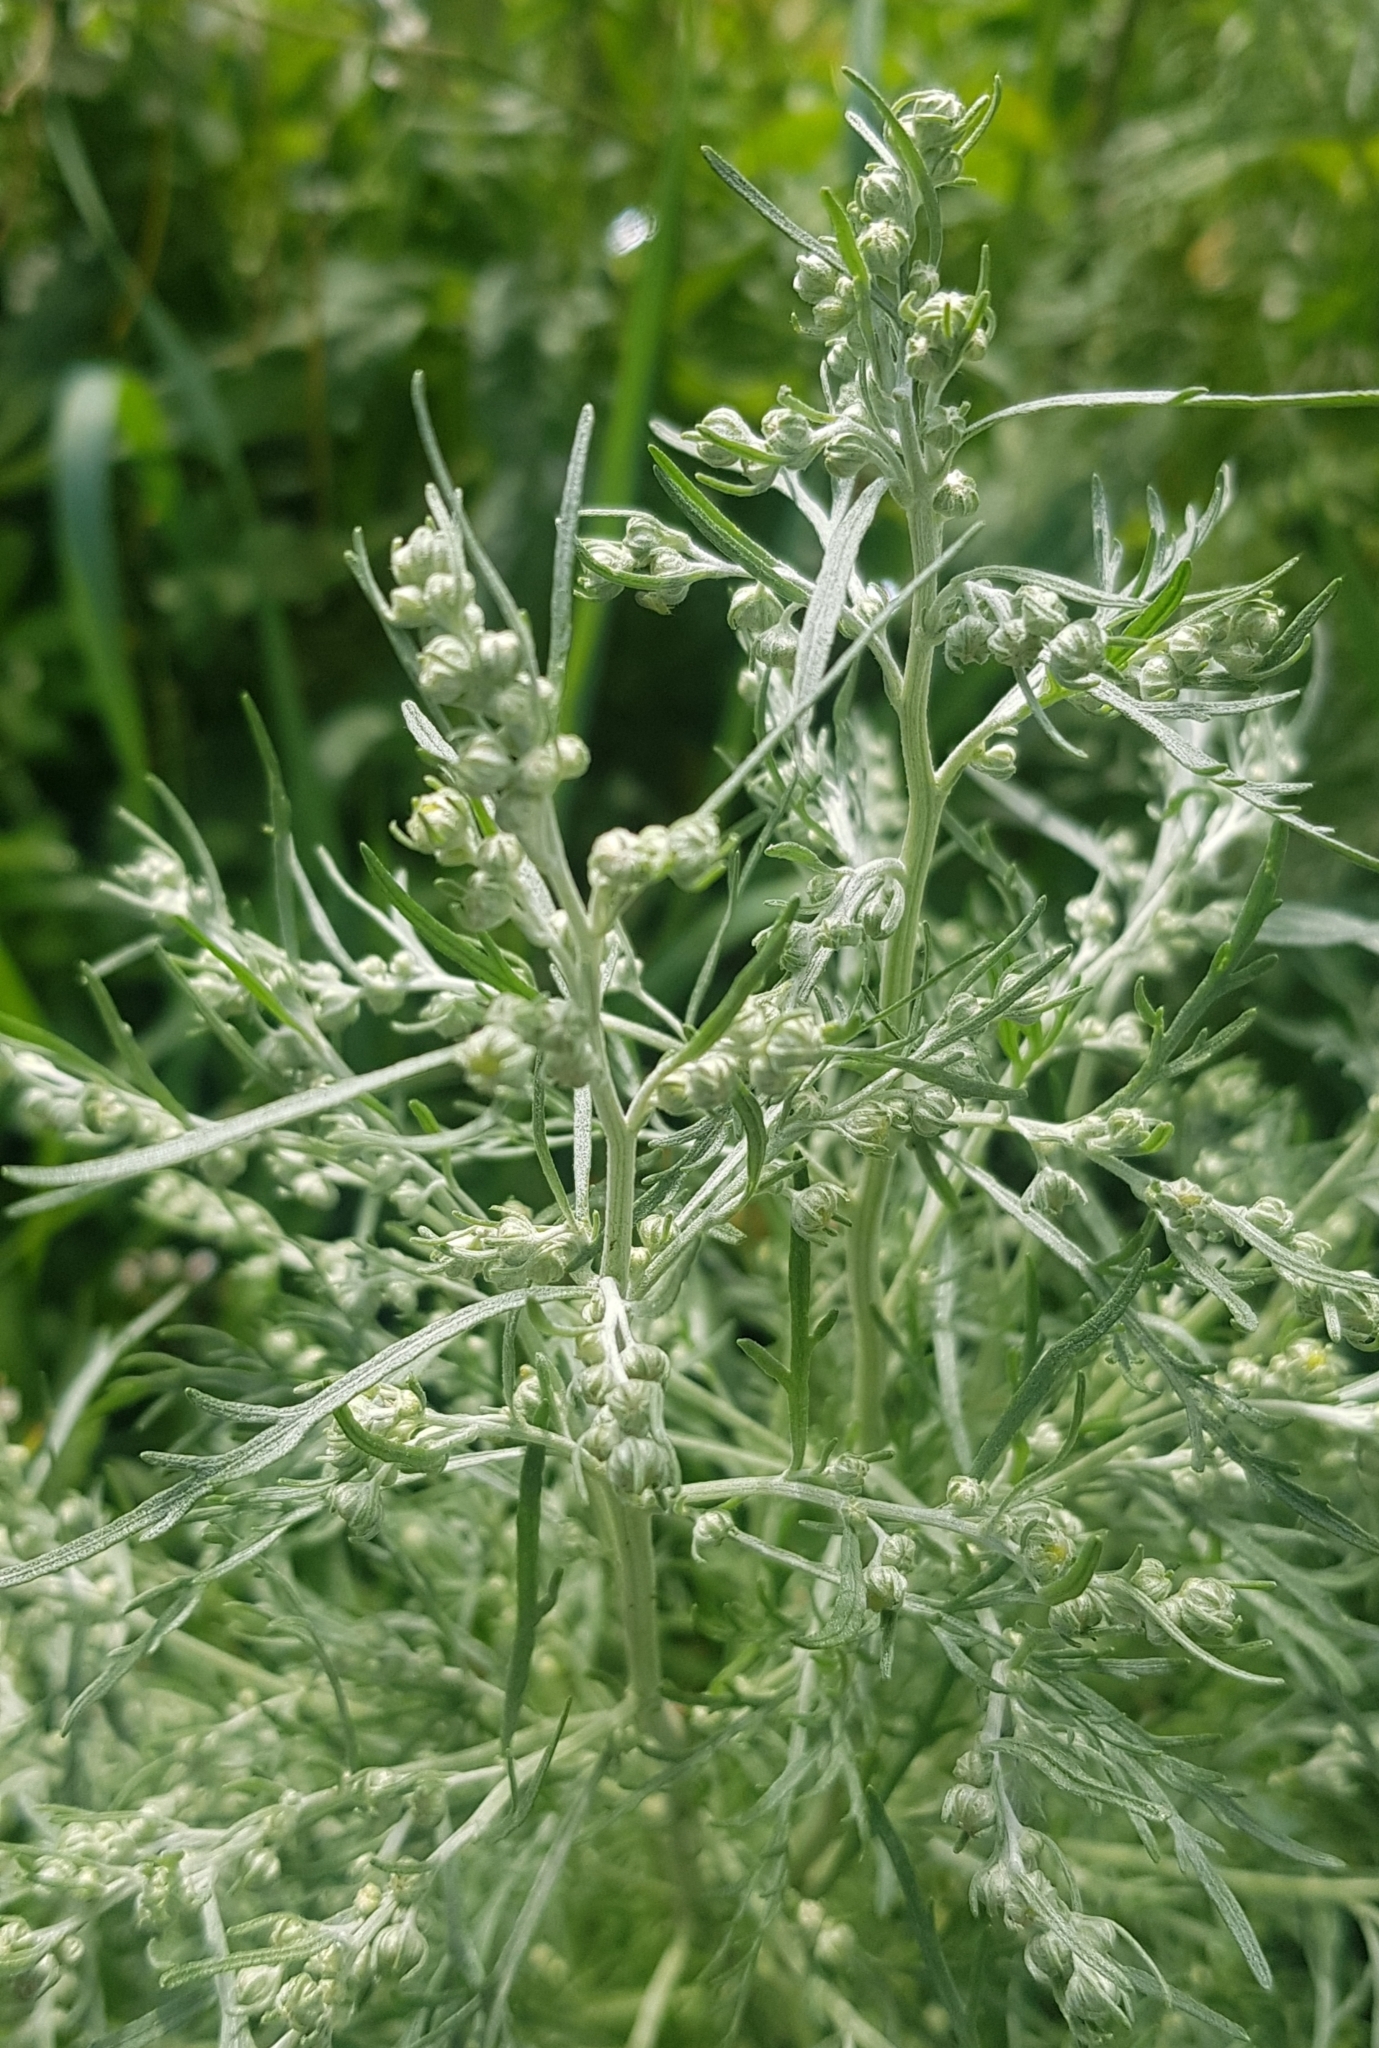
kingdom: Plantae
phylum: Tracheophyta
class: Magnoliopsida
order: Asterales
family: Asteraceae
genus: Artemisia
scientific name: Artemisia sieversiana
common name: Sieversian wormwood
